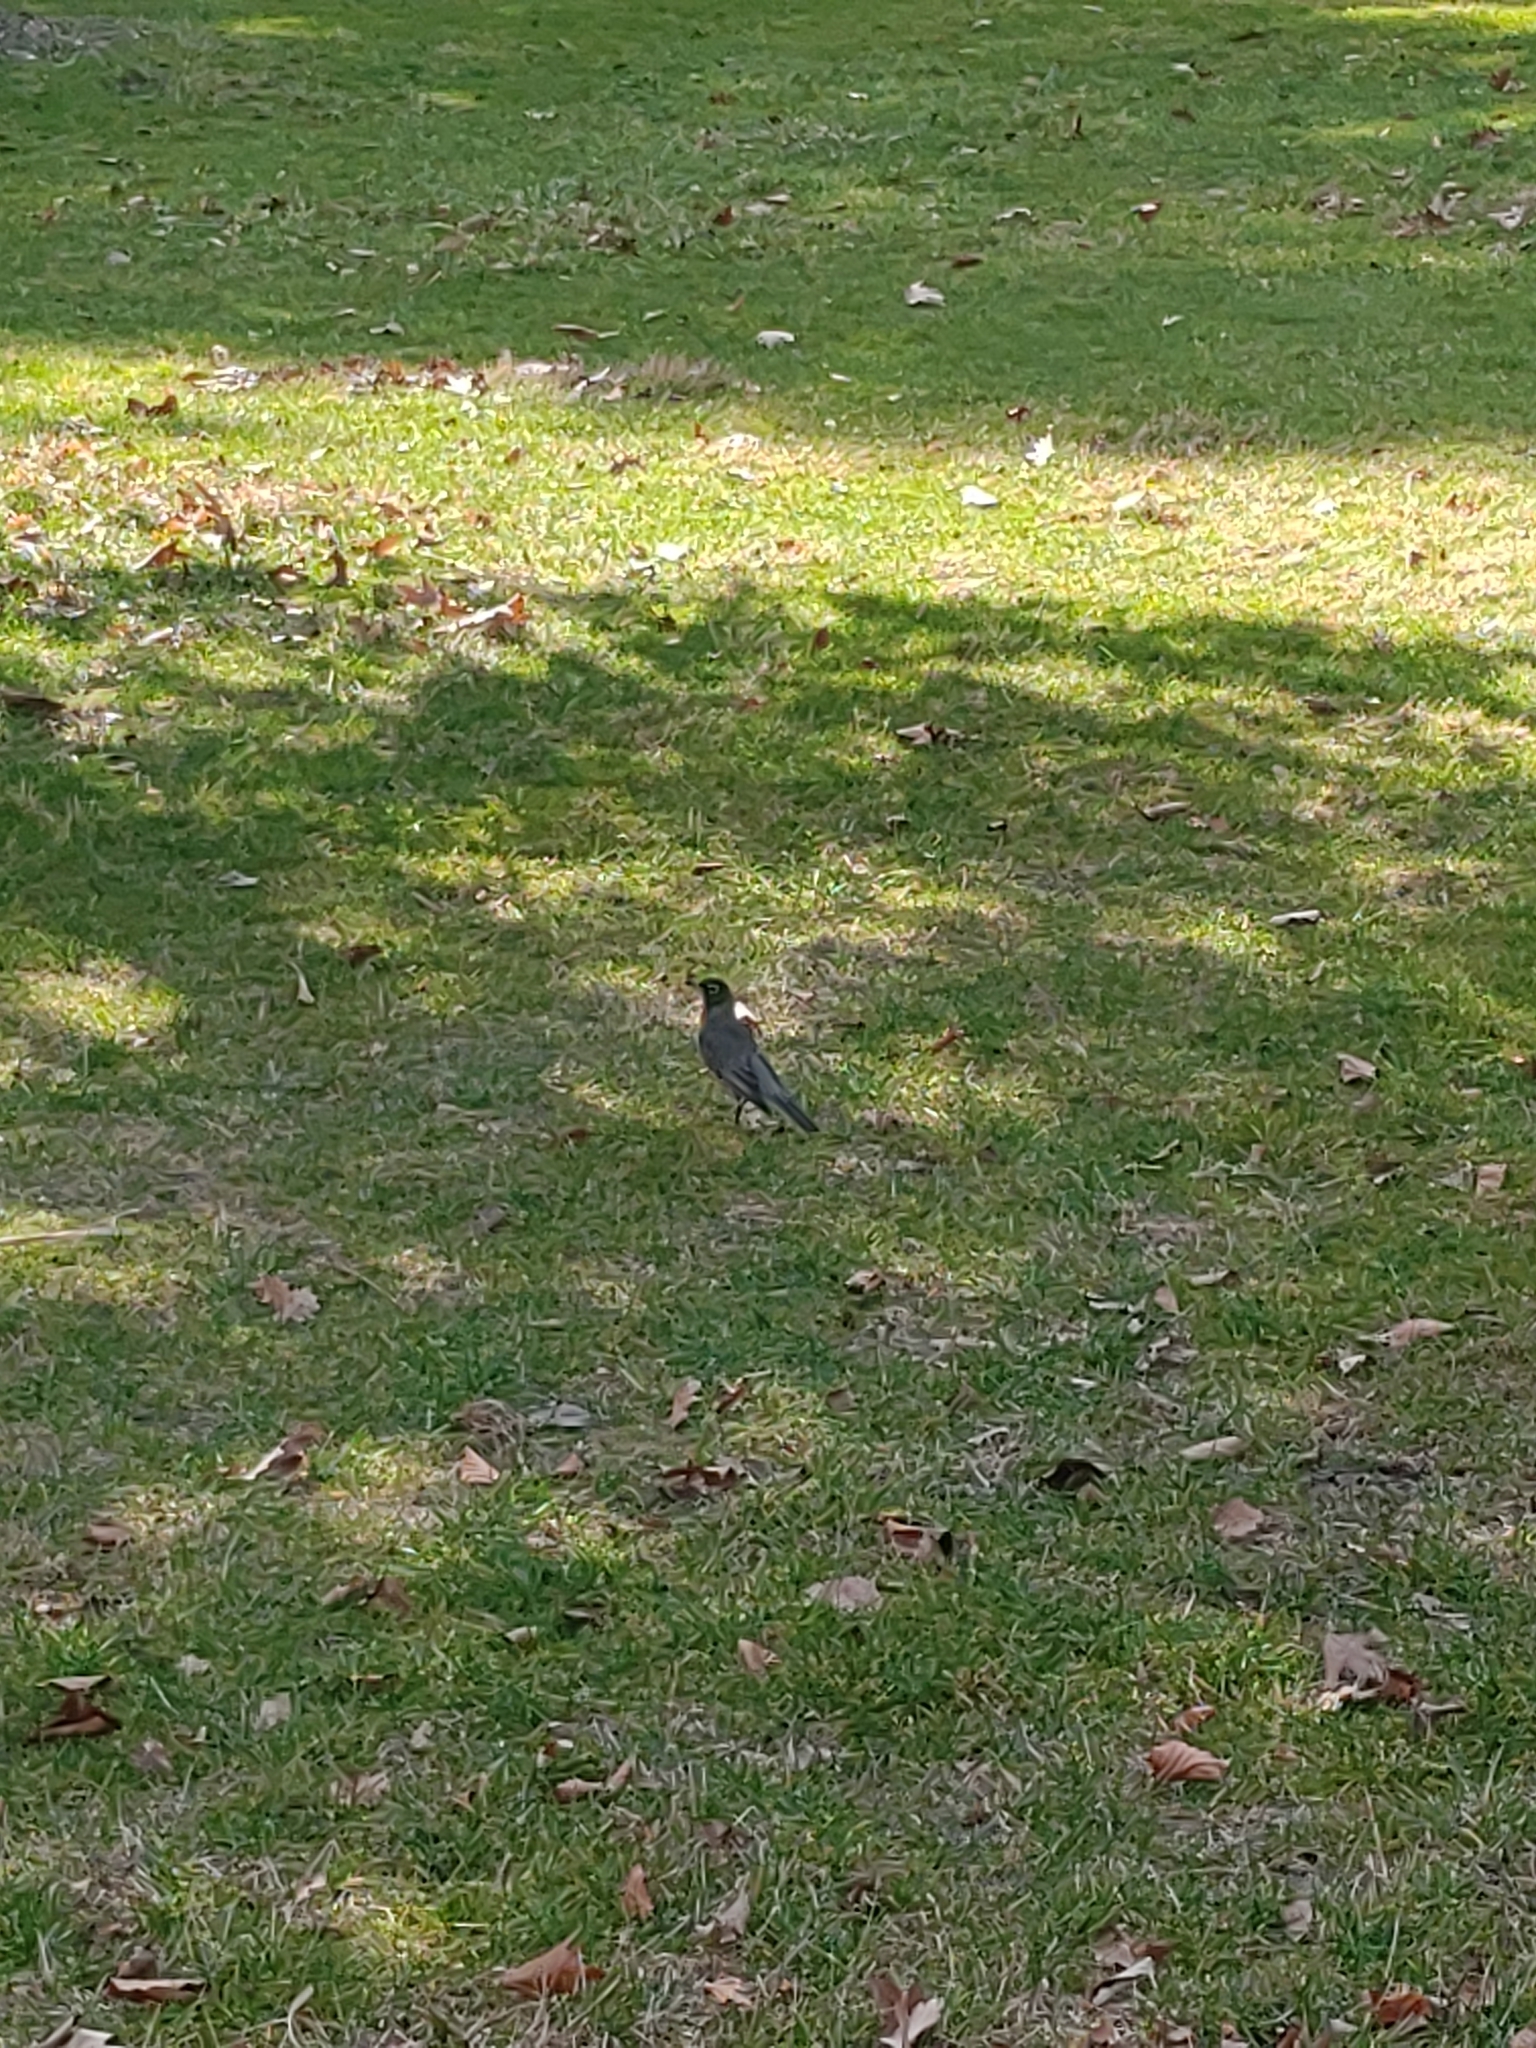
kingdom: Animalia
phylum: Chordata
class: Aves
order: Passeriformes
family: Turdidae
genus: Turdus
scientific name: Turdus migratorius
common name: American robin
